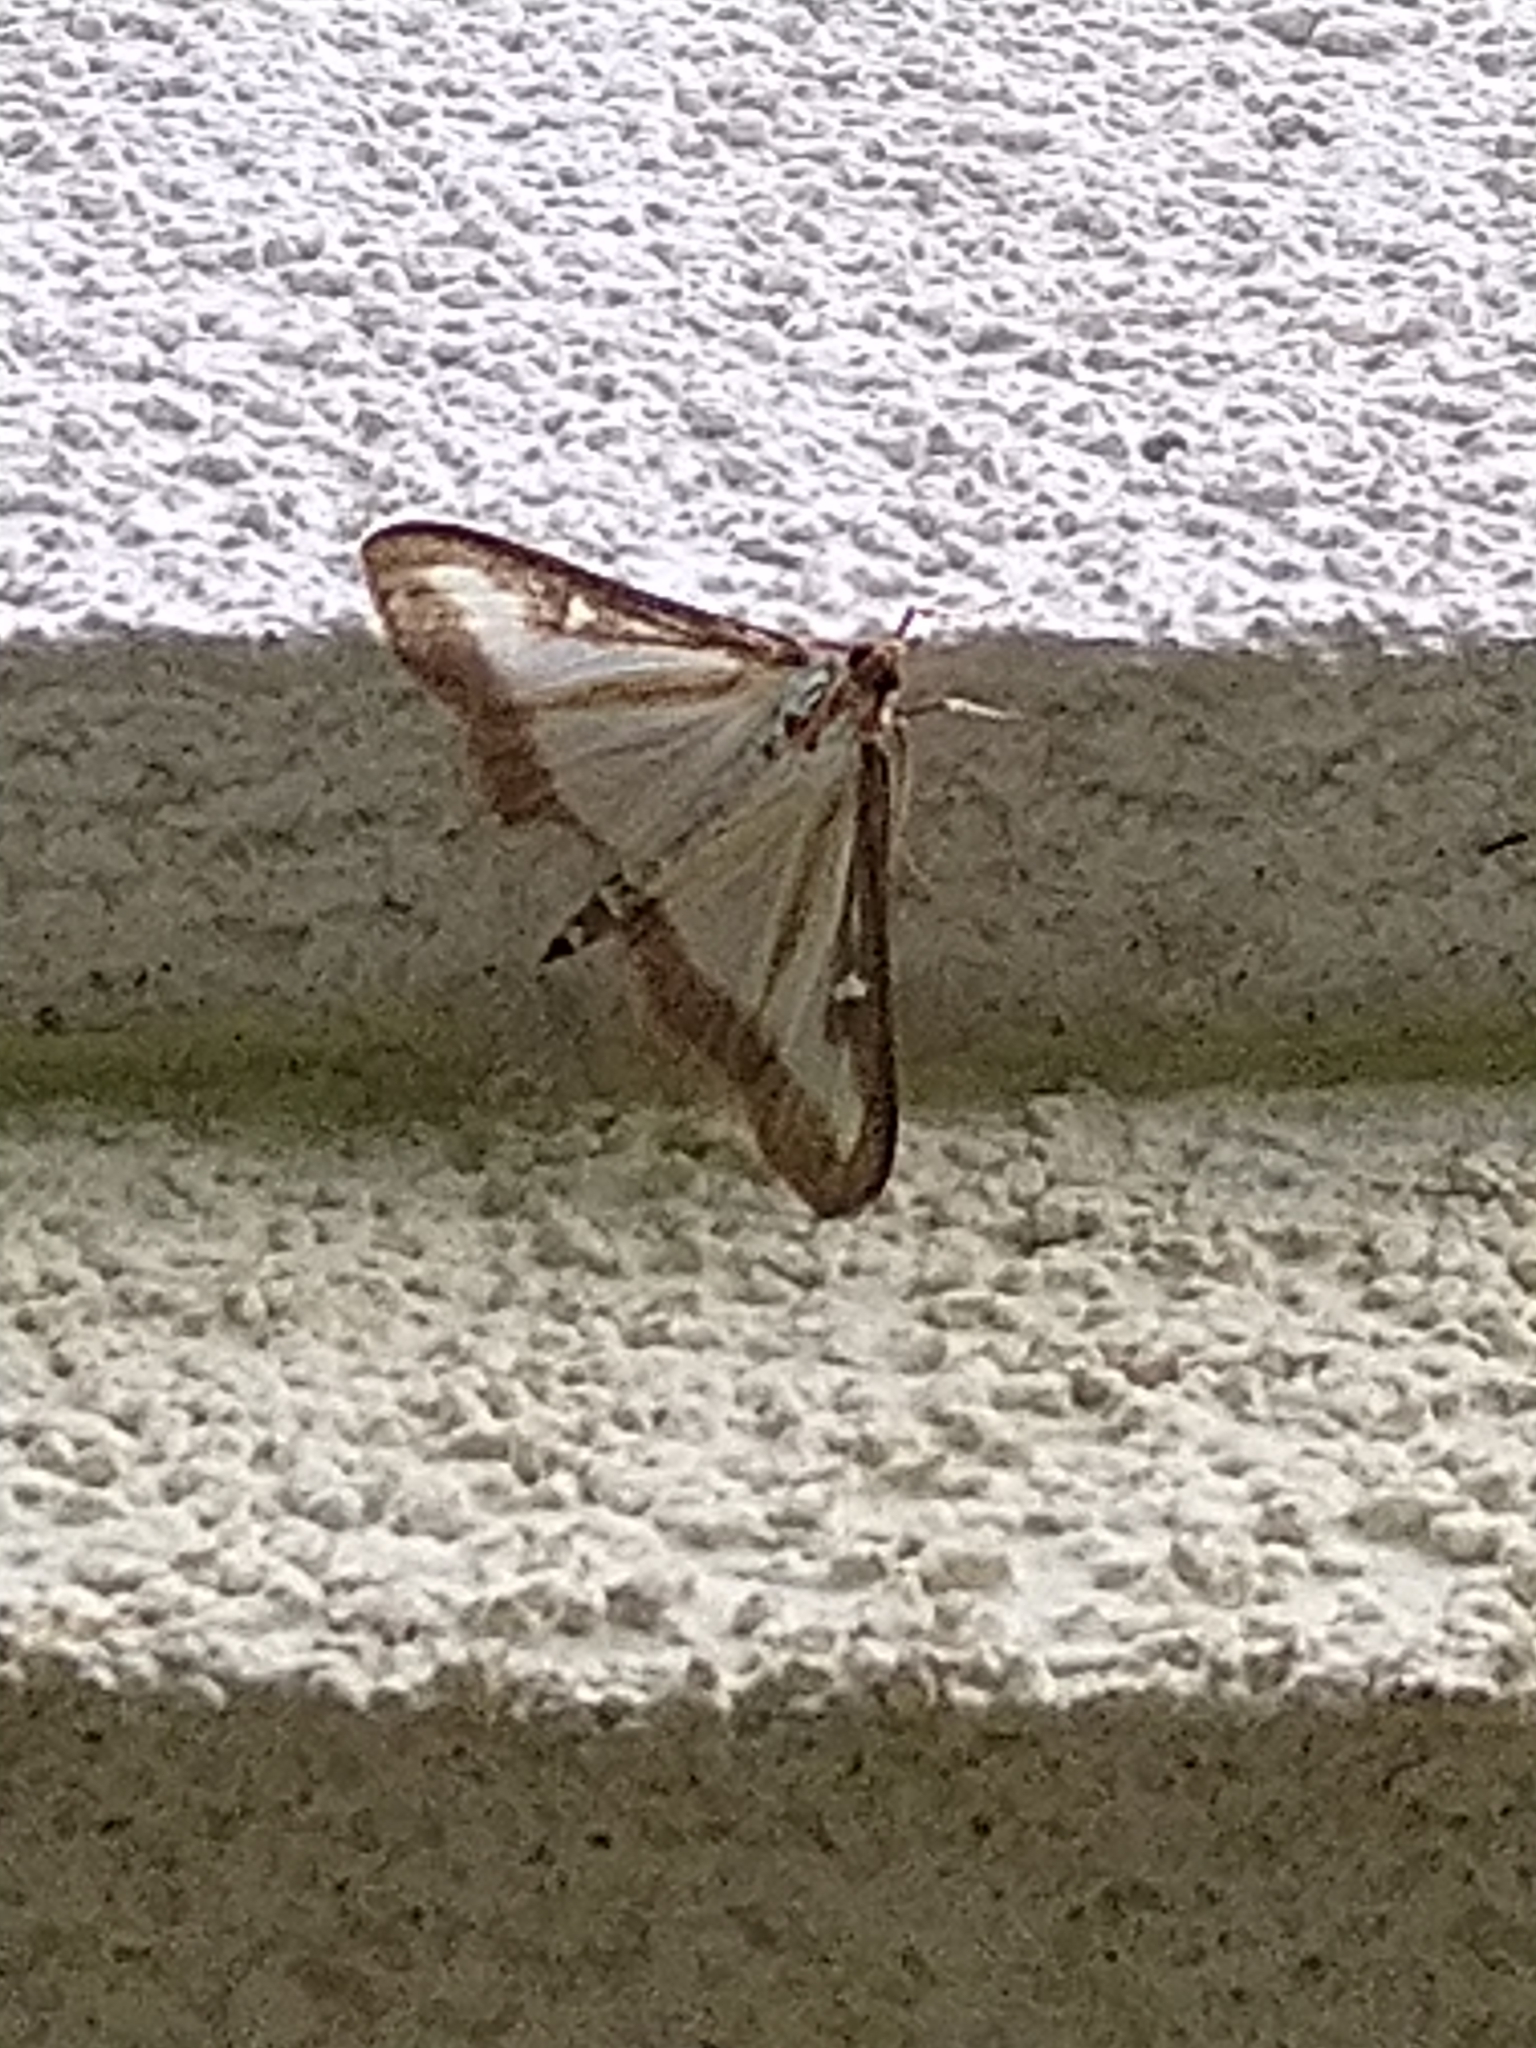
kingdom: Animalia
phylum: Arthropoda
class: Insecta
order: Lepidoptera
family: Crambidae
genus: Cydalima
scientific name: Cydalima perspectalis
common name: Box tree moth
